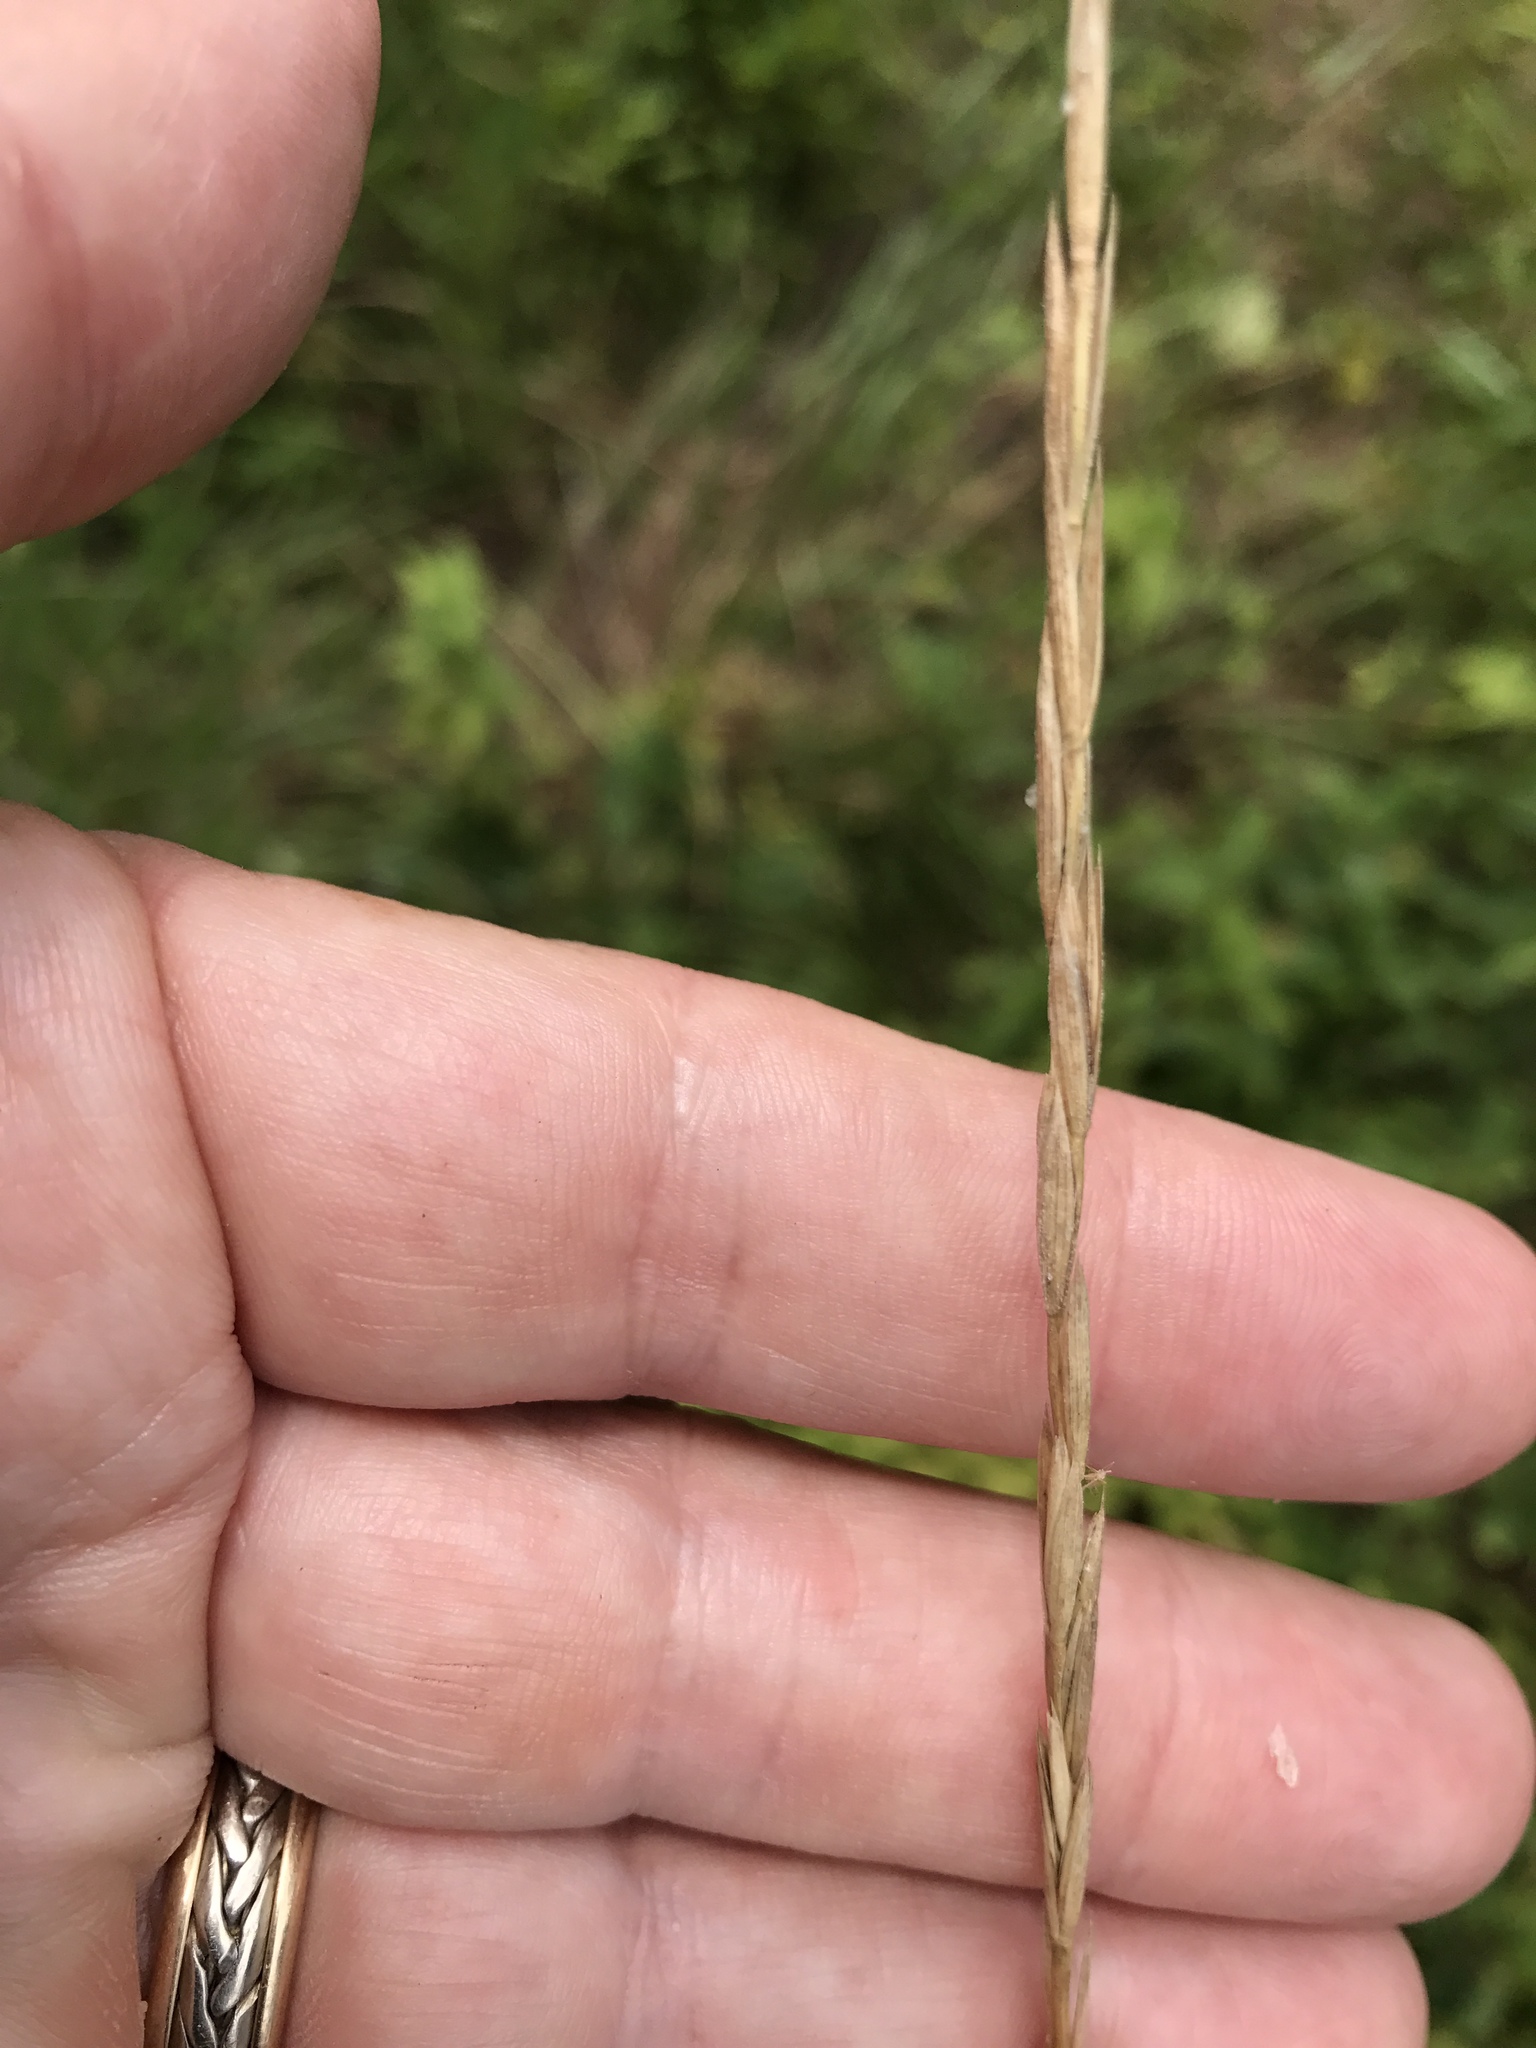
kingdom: Plantae
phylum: Tracheophyta
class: Liliopsida
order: Poales
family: Poaceae
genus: Elymus
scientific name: Elymus violaceus
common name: Arctic wheatgrass
